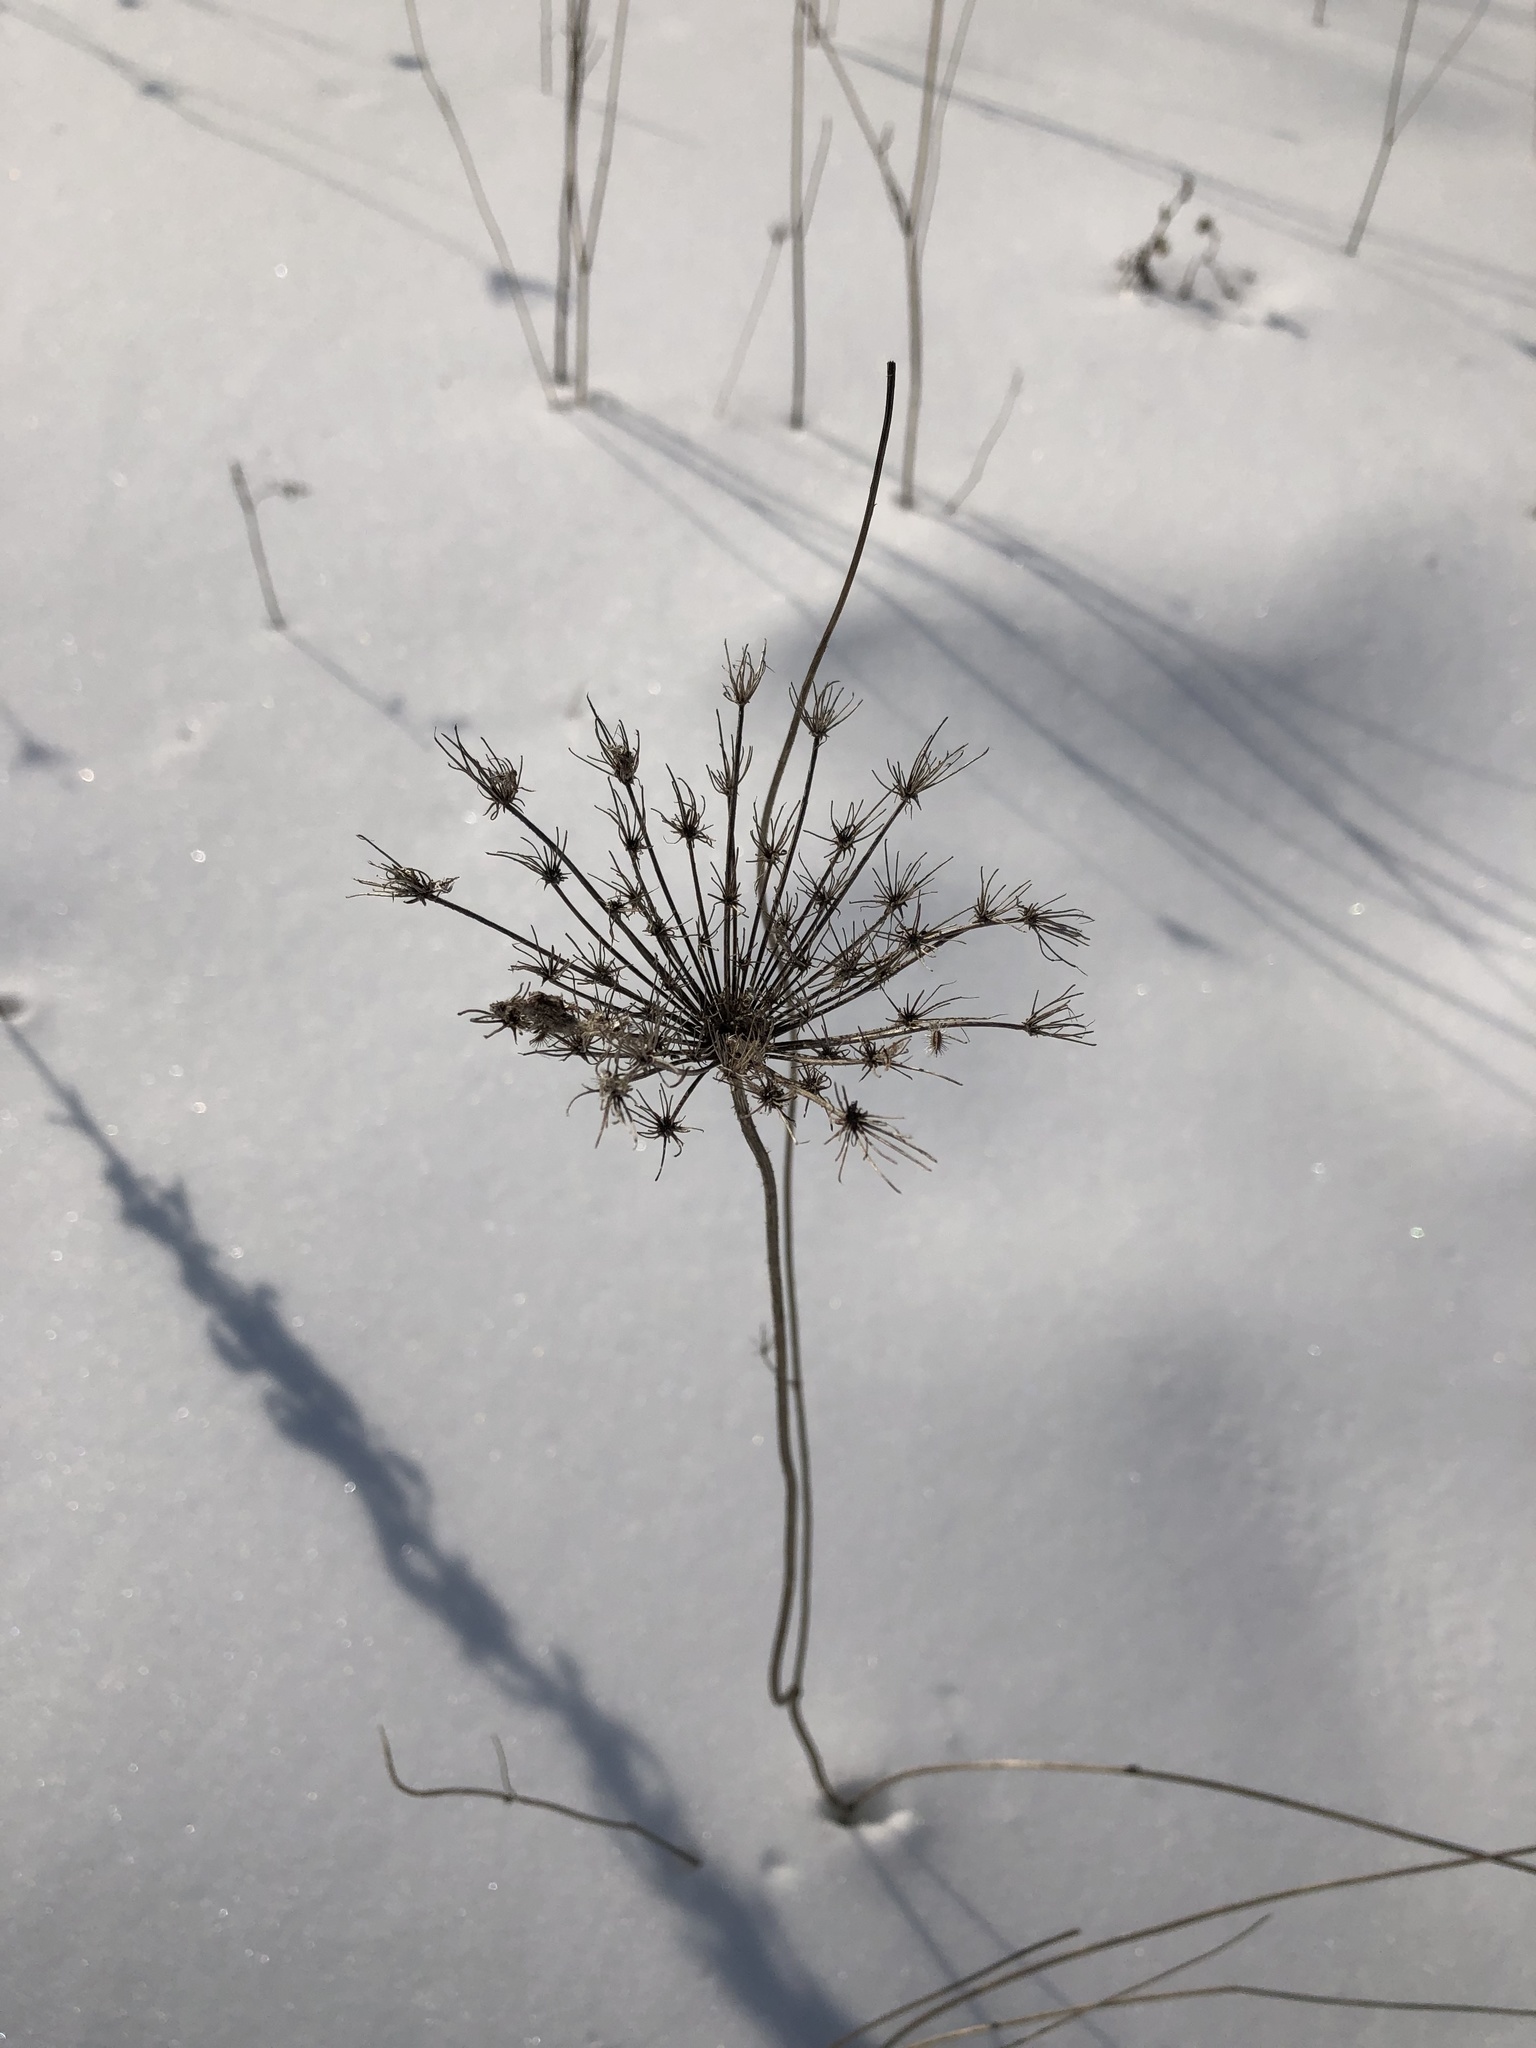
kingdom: Plantae
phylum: Tracheophyta
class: Magnoliopsida
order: Apiales
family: Apiaceae
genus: Daucus
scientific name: Daucus carota
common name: Wild carrot
